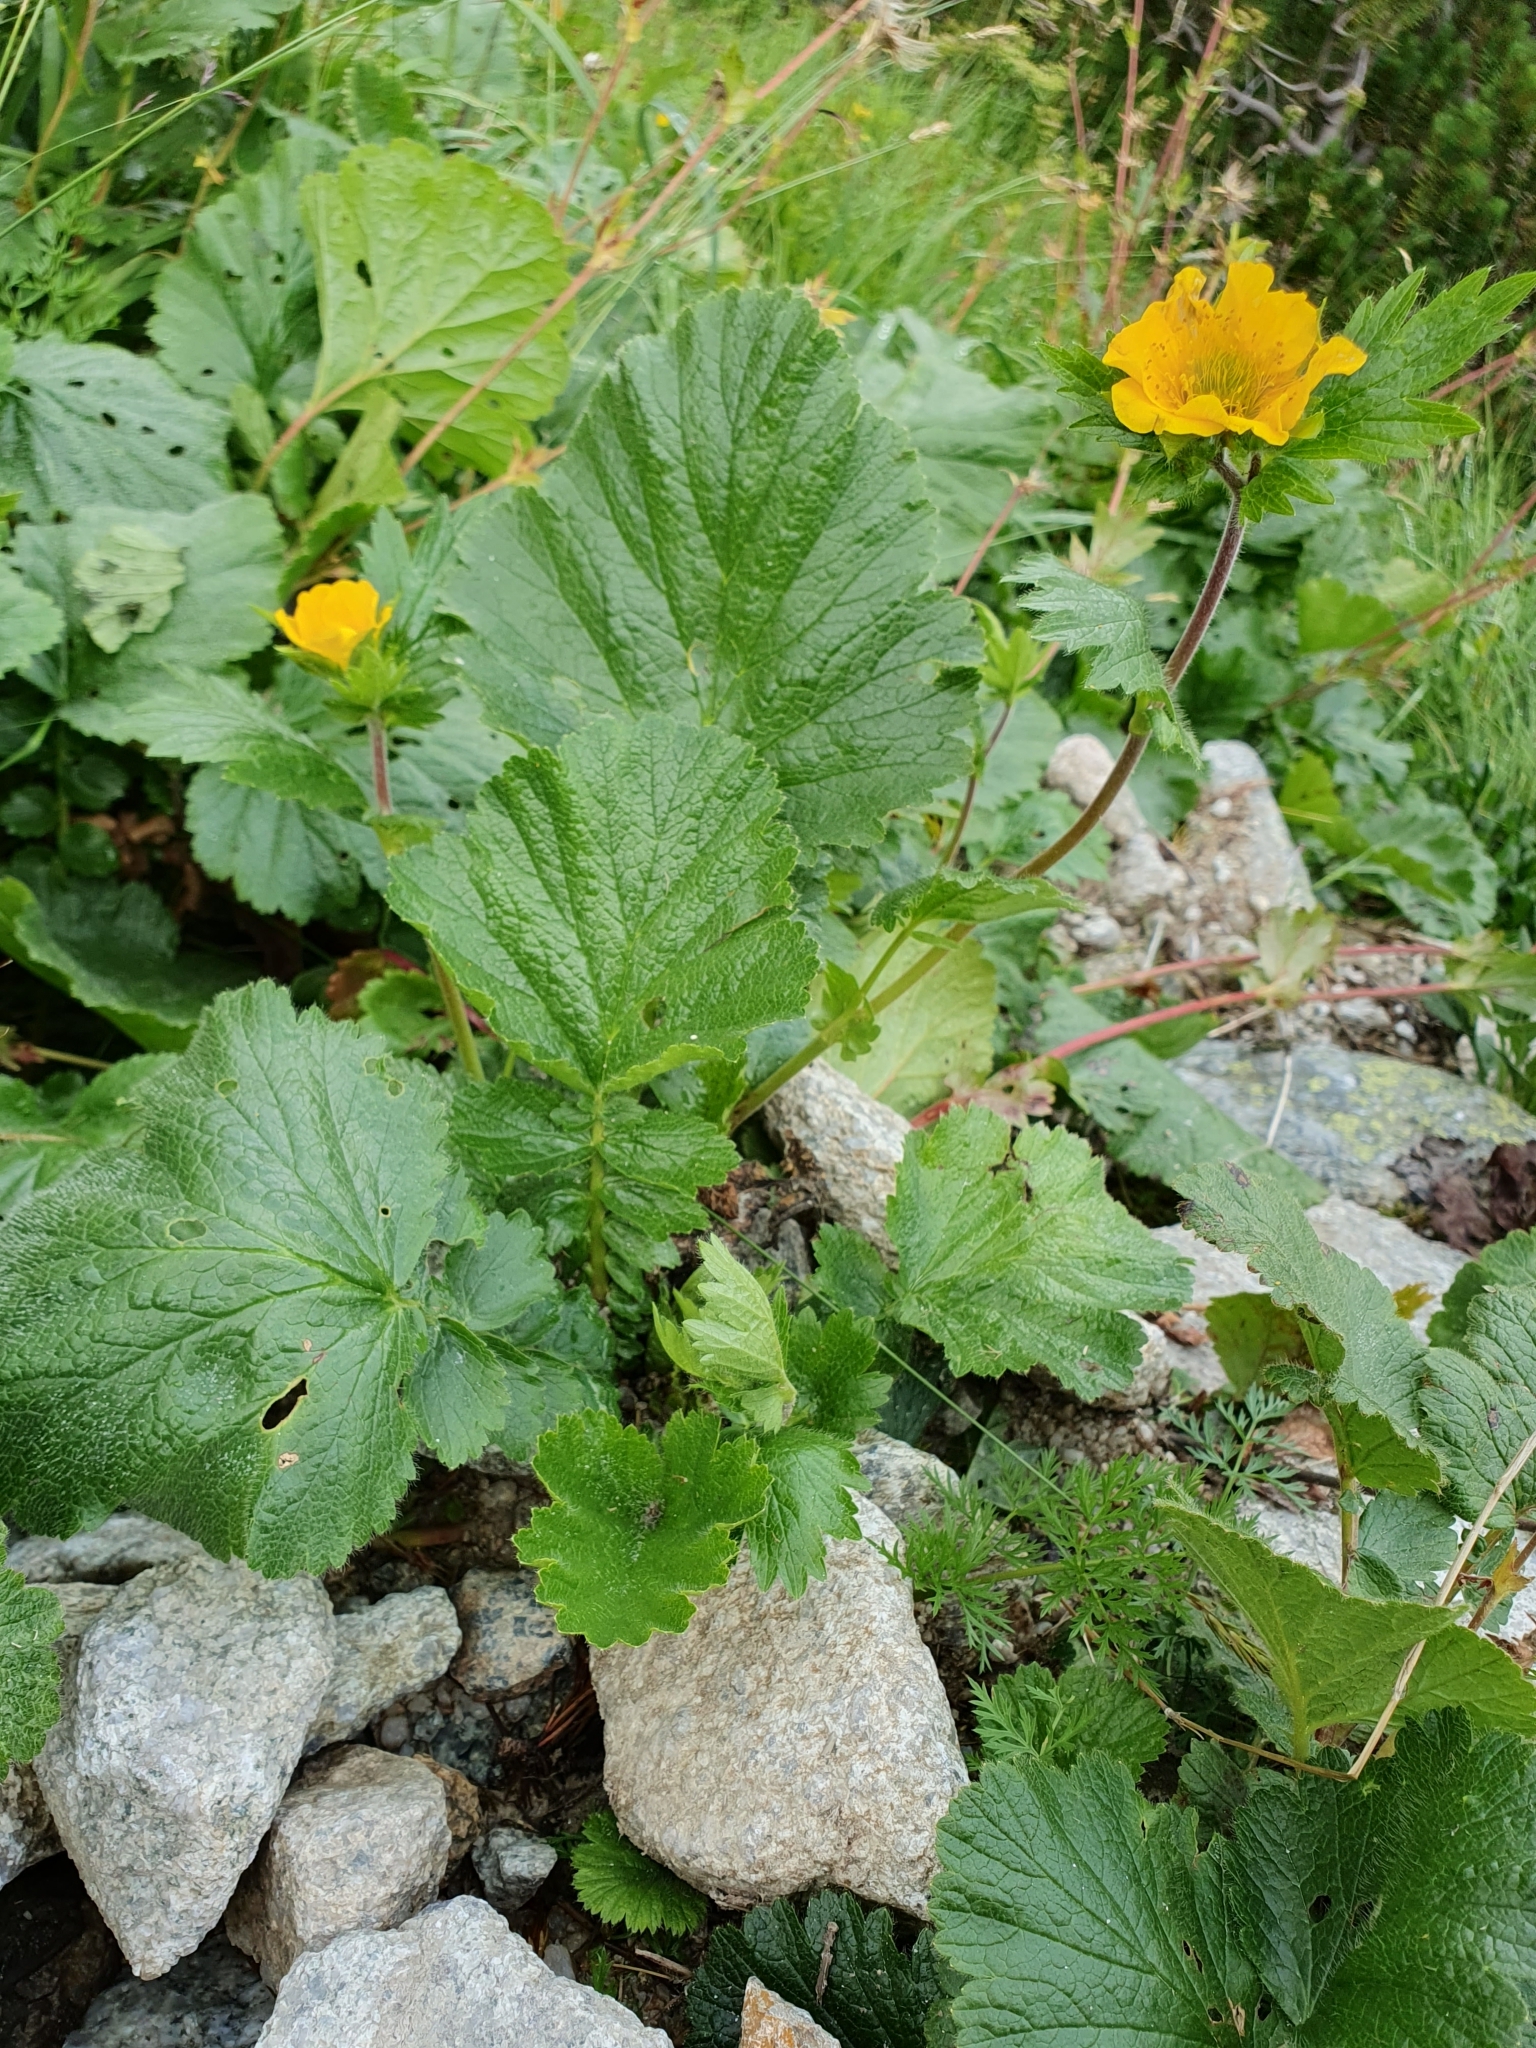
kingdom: Plantae
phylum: Tracheophyta
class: Magnoliopsida
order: Rosales
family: Rosaceae
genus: Geum
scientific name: Geum montanum
